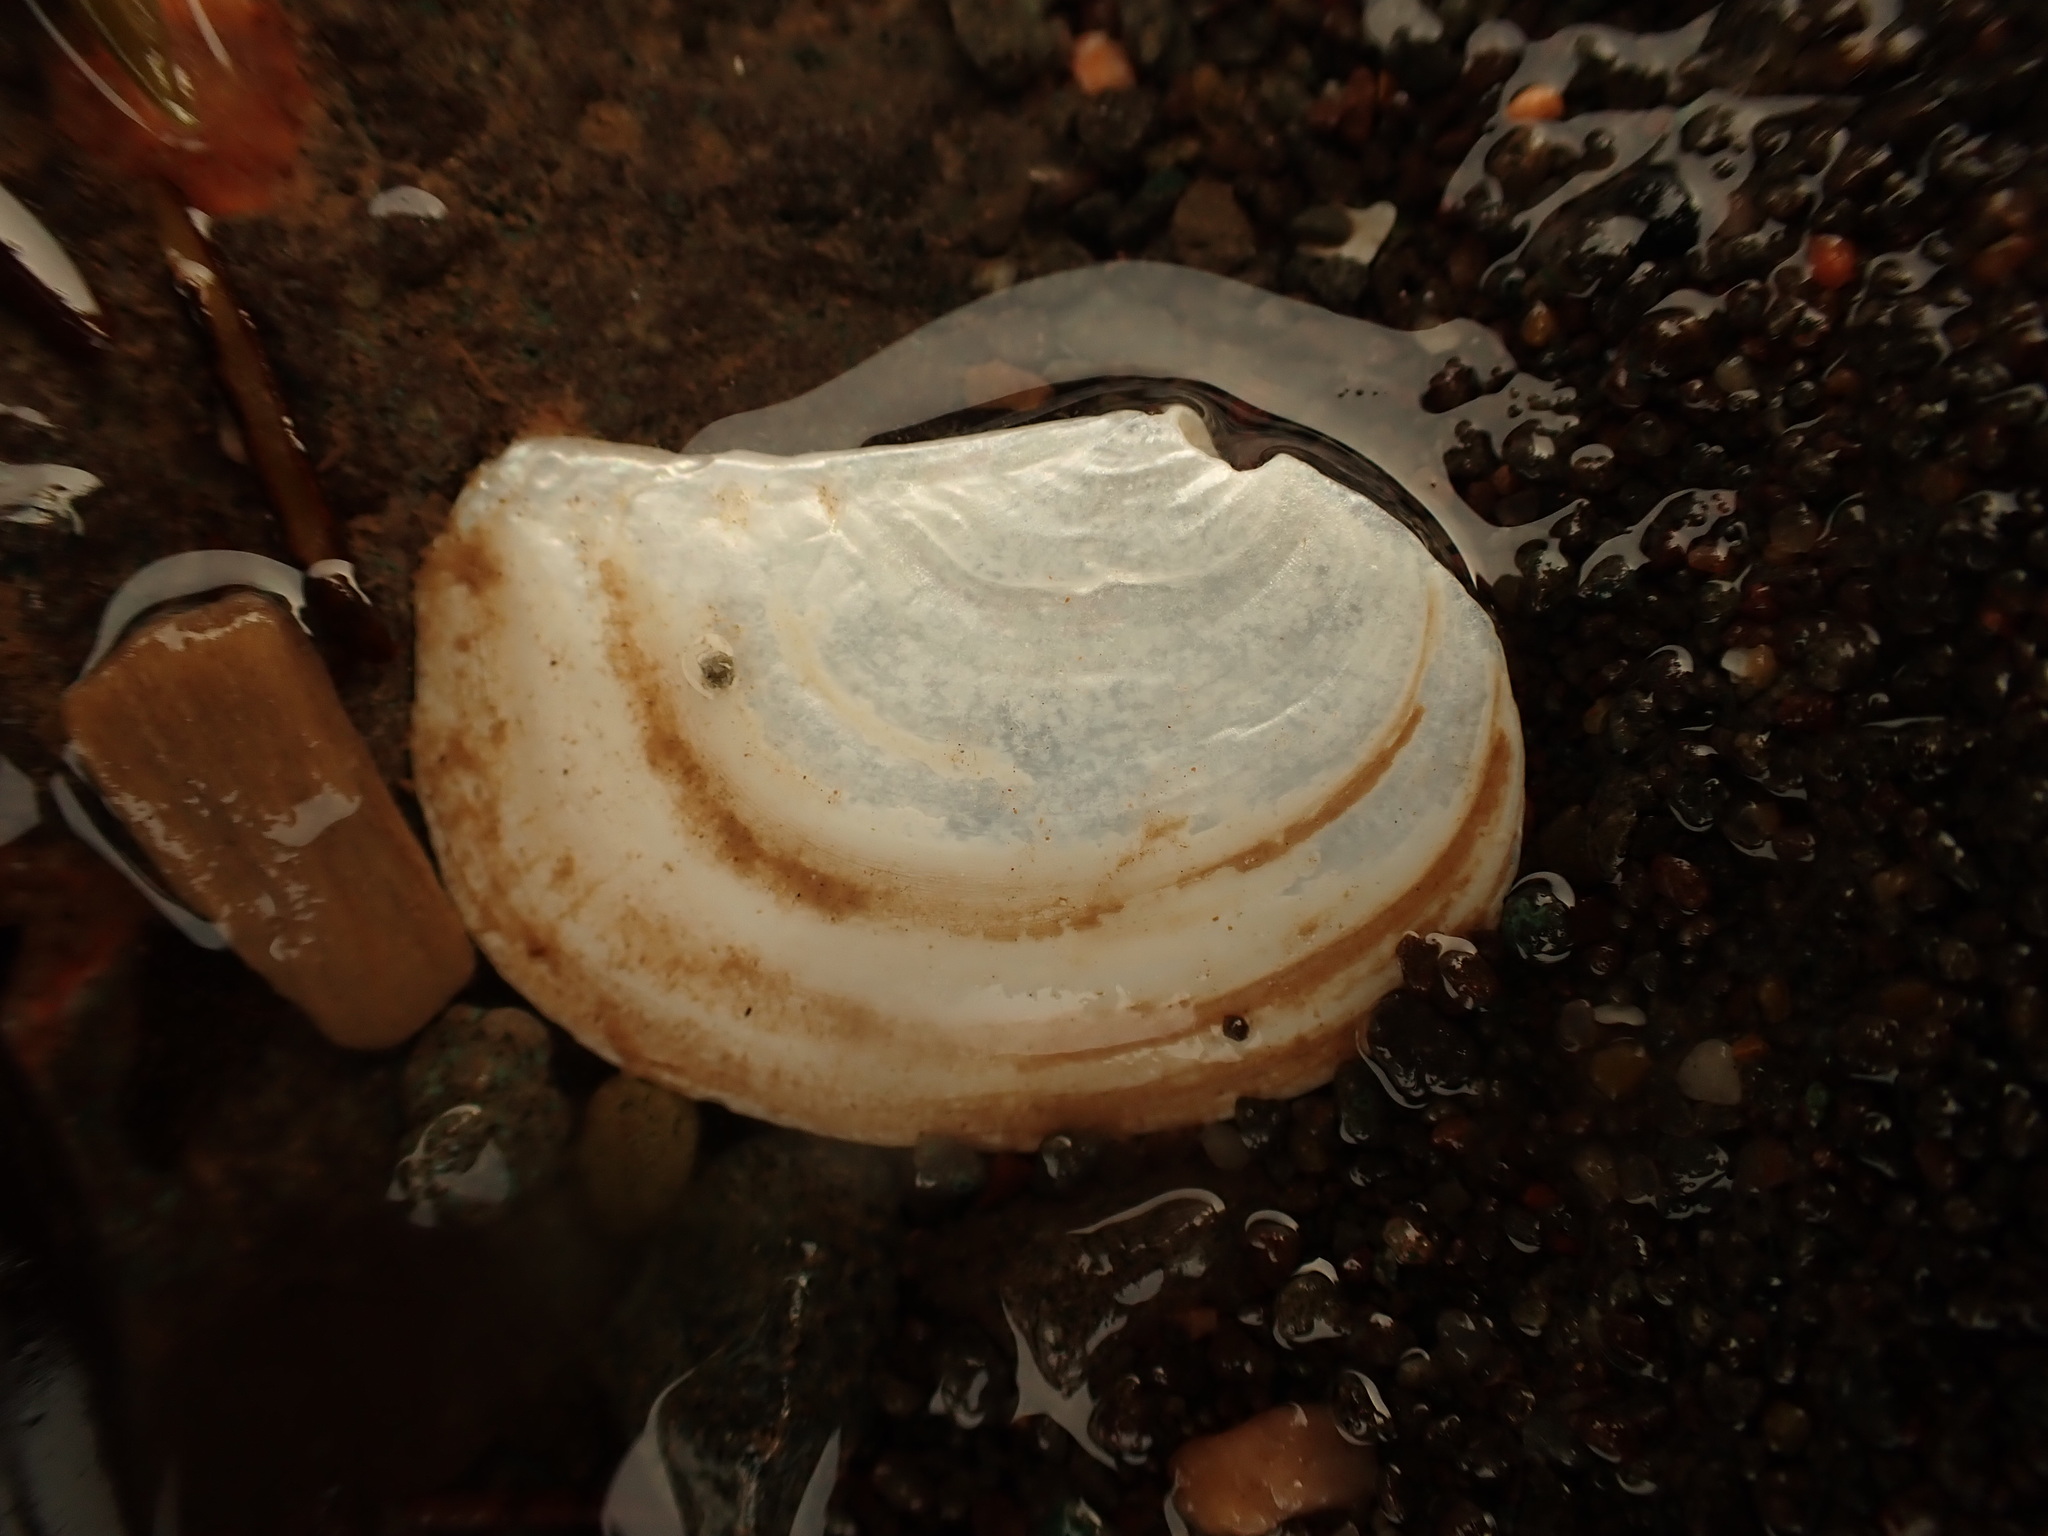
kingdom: Animalia
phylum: Mollusca
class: Bivalvia
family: Pandoridae
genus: Pandora
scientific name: Pandora gouldiana
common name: Rounded pandora
